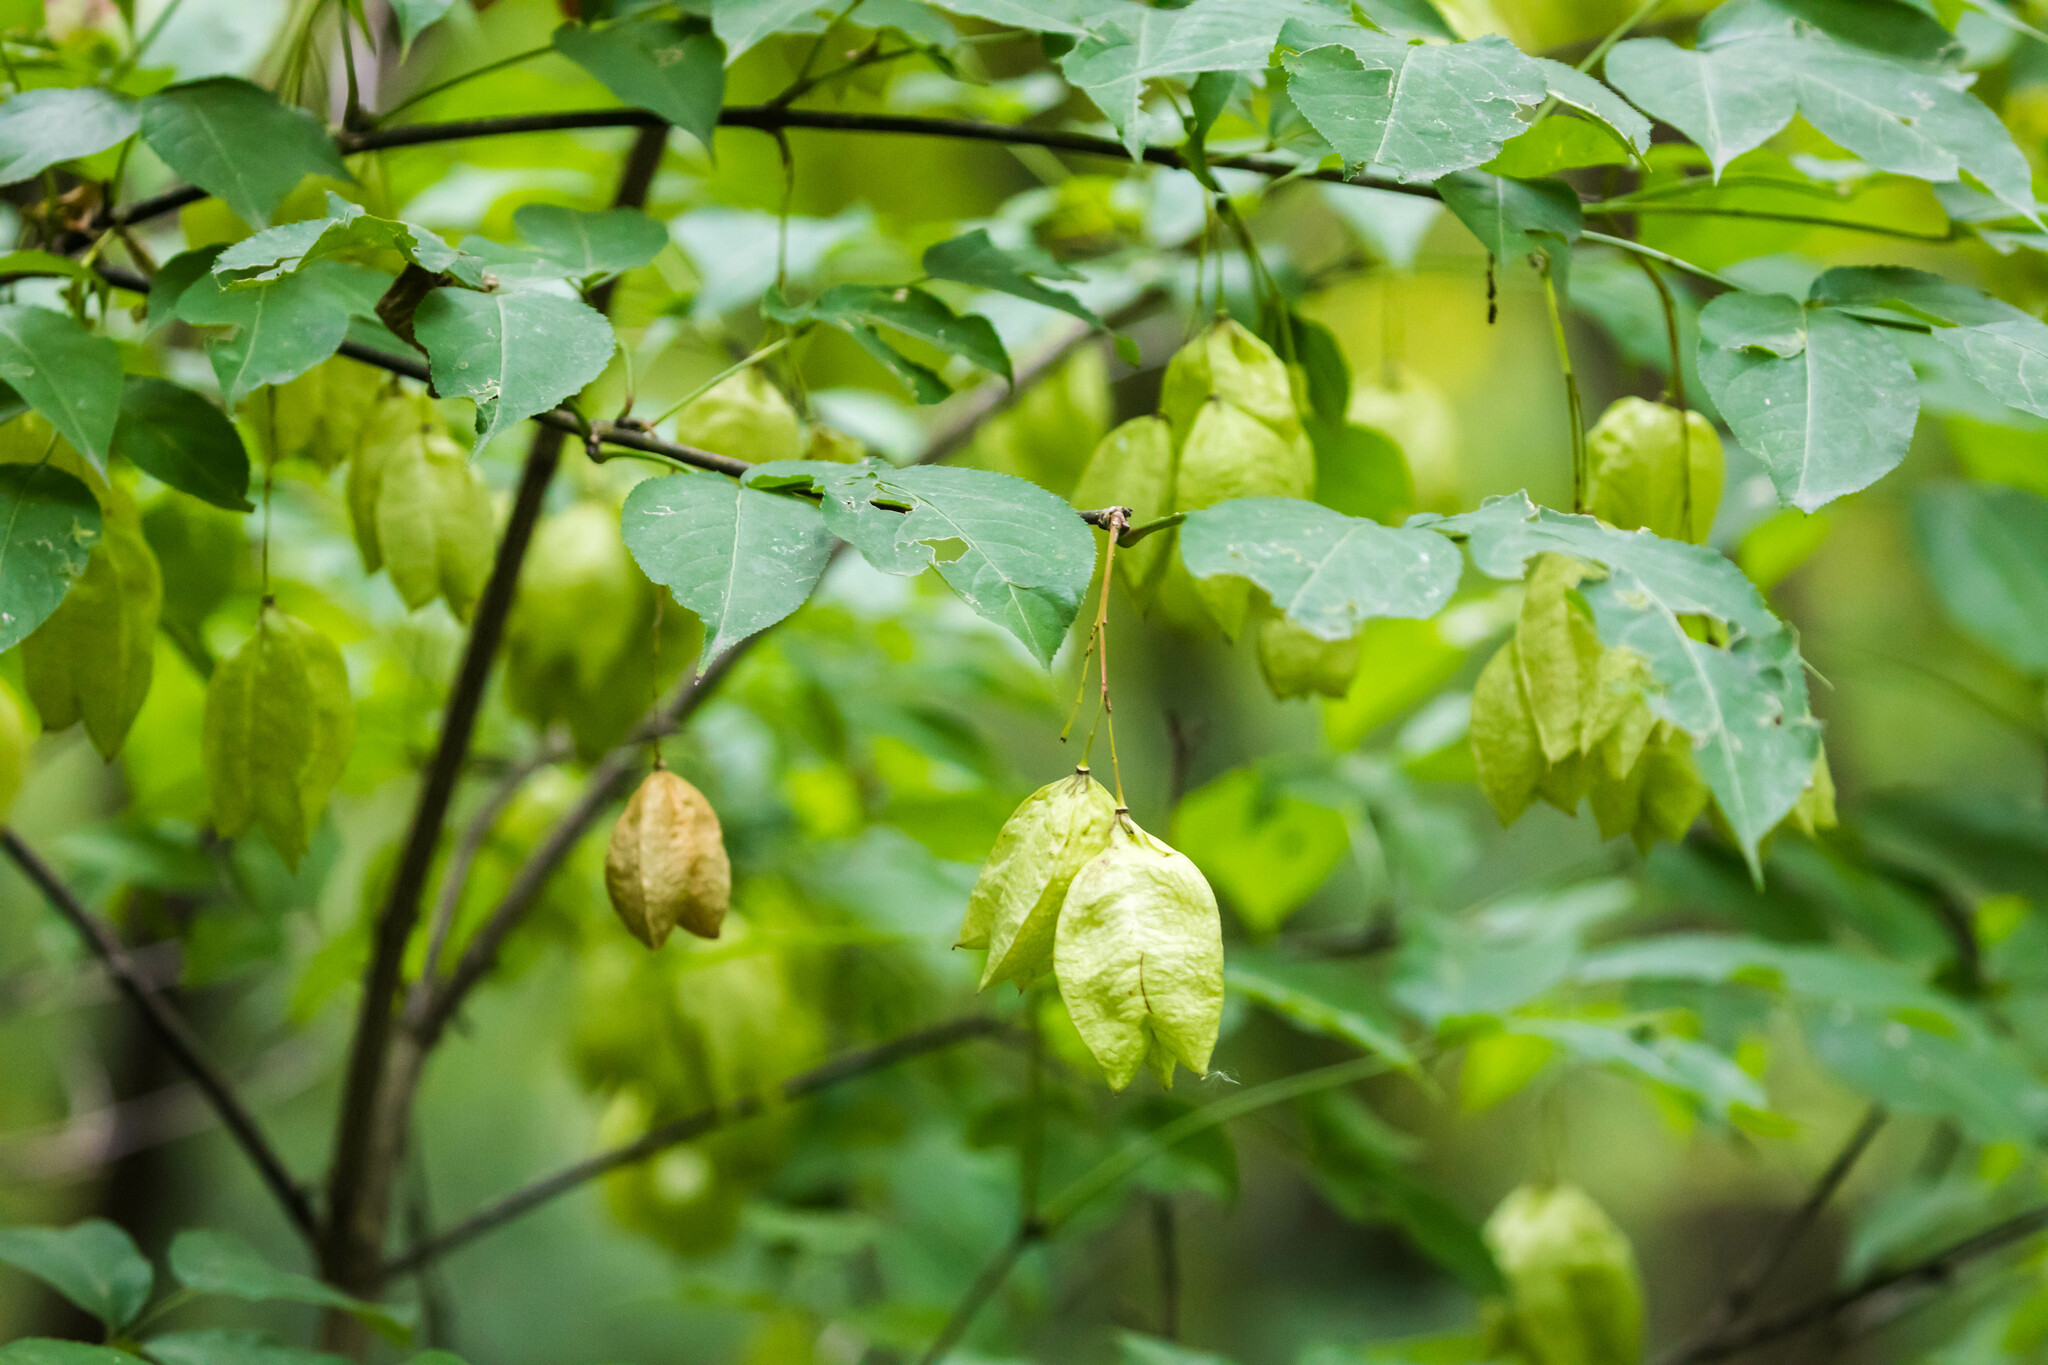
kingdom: Plantae
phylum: Tracheophyta
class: Magnoliopsida
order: Crossosomatales
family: Staphyleaceae
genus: Staphylea
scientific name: Staphylea trifolia
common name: American bladdernut
